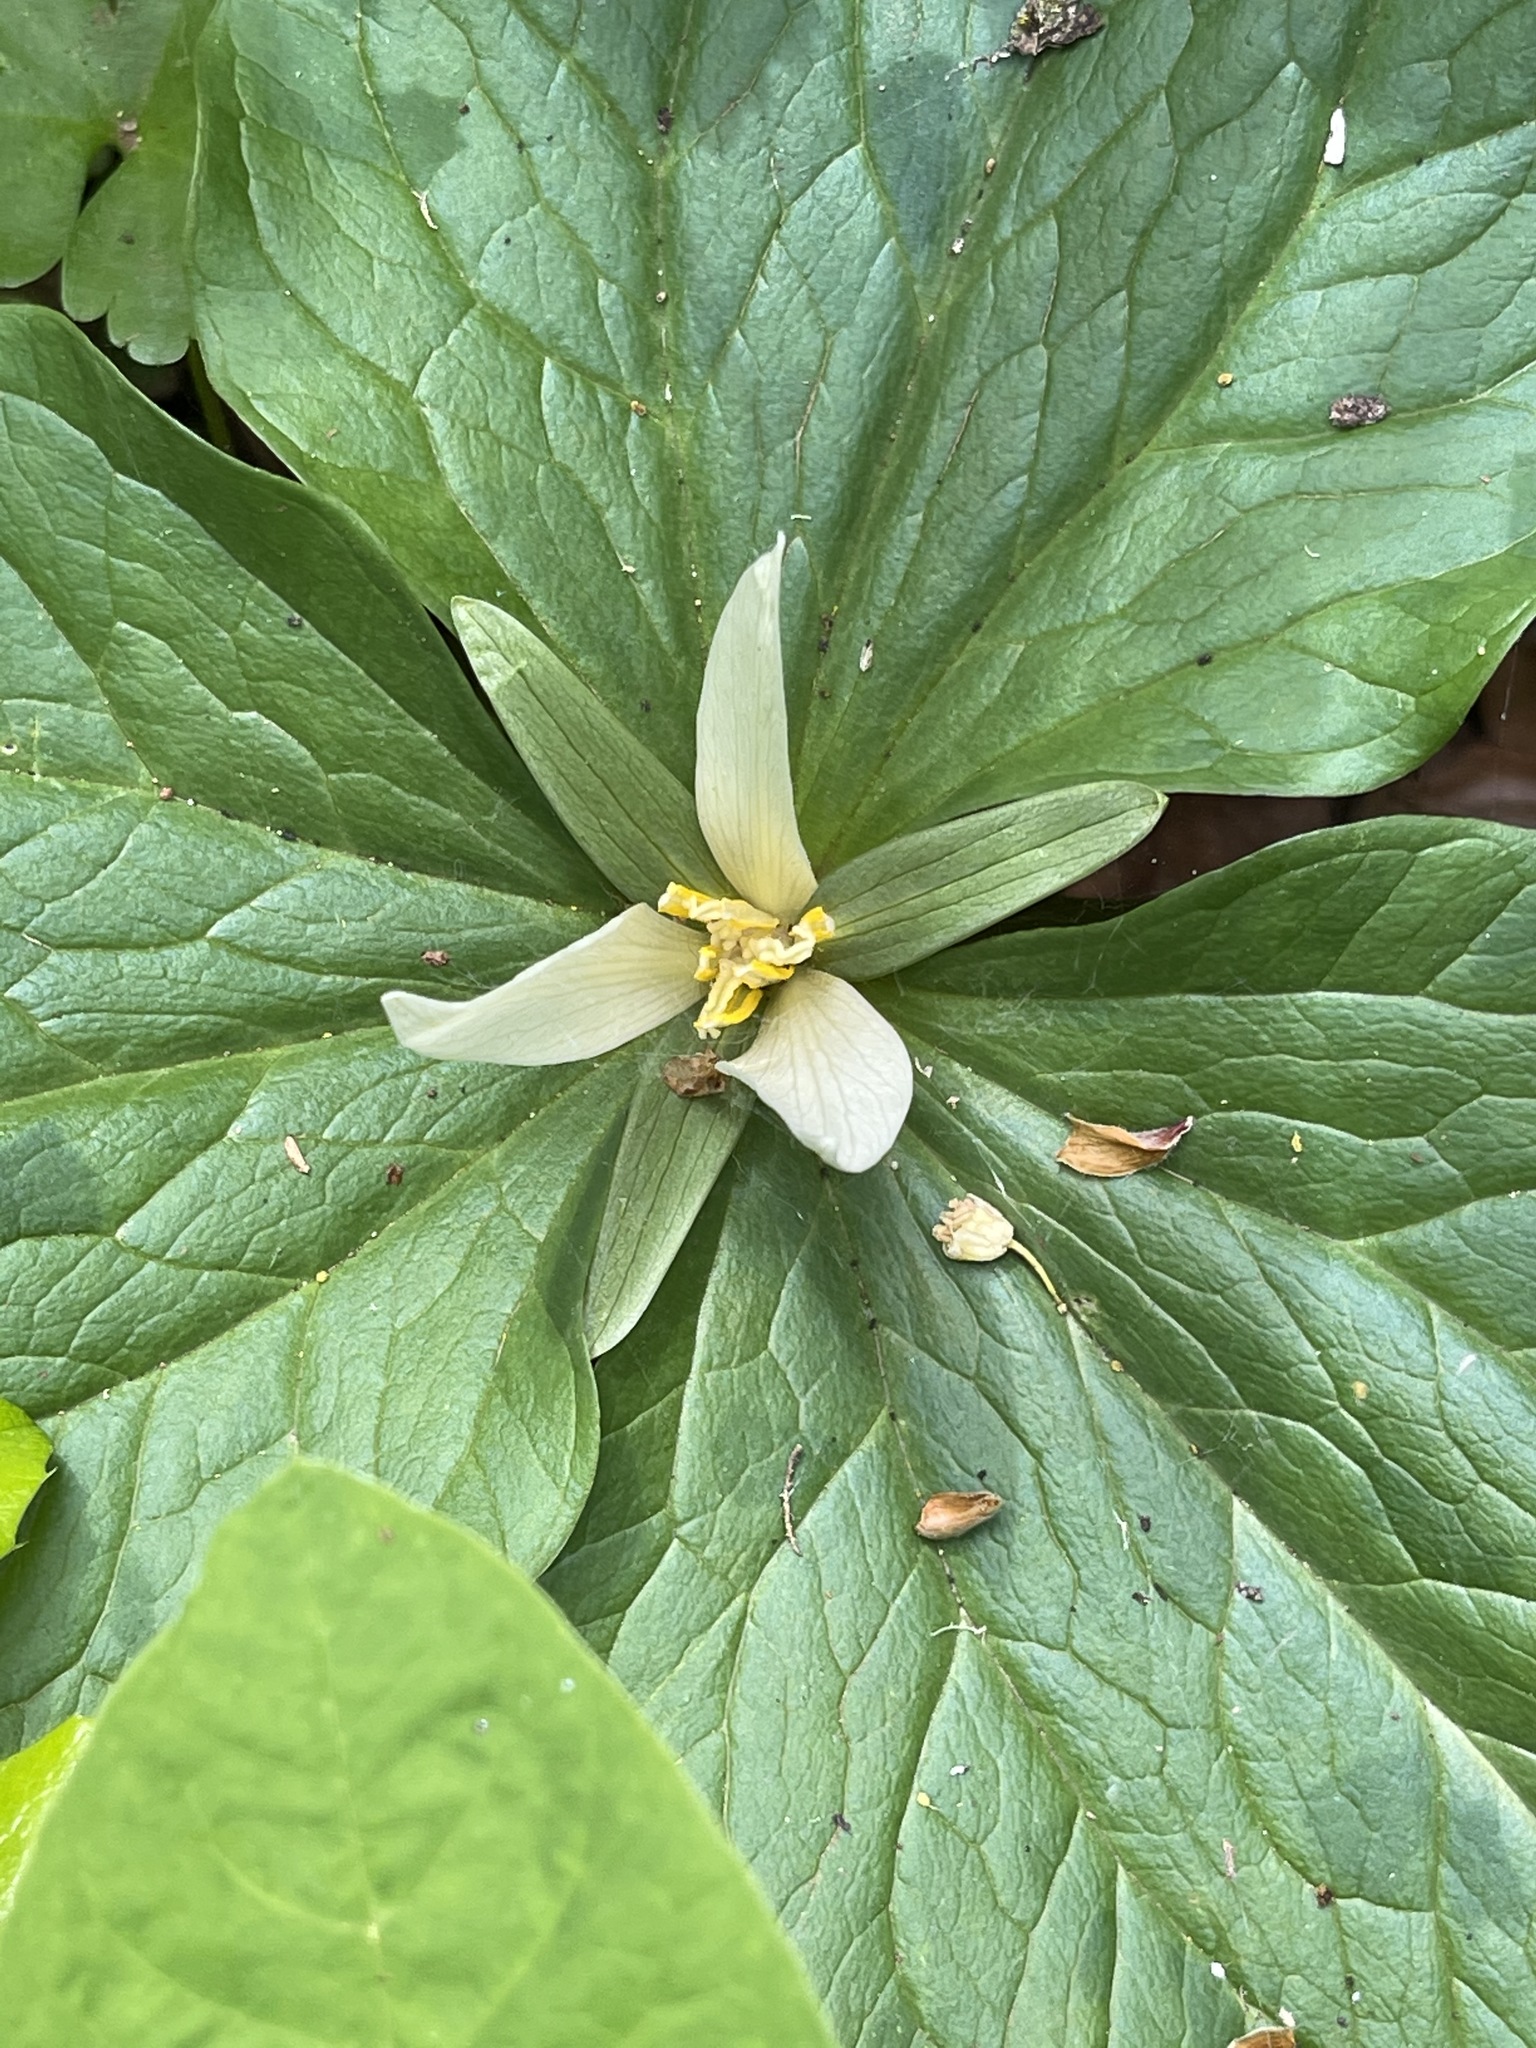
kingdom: Plantae
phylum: Tracheophyta
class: Liliopsida
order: Liliales
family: Melanthiaceae
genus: Trillium
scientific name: Trillium albidum
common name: Freeman's trillium
